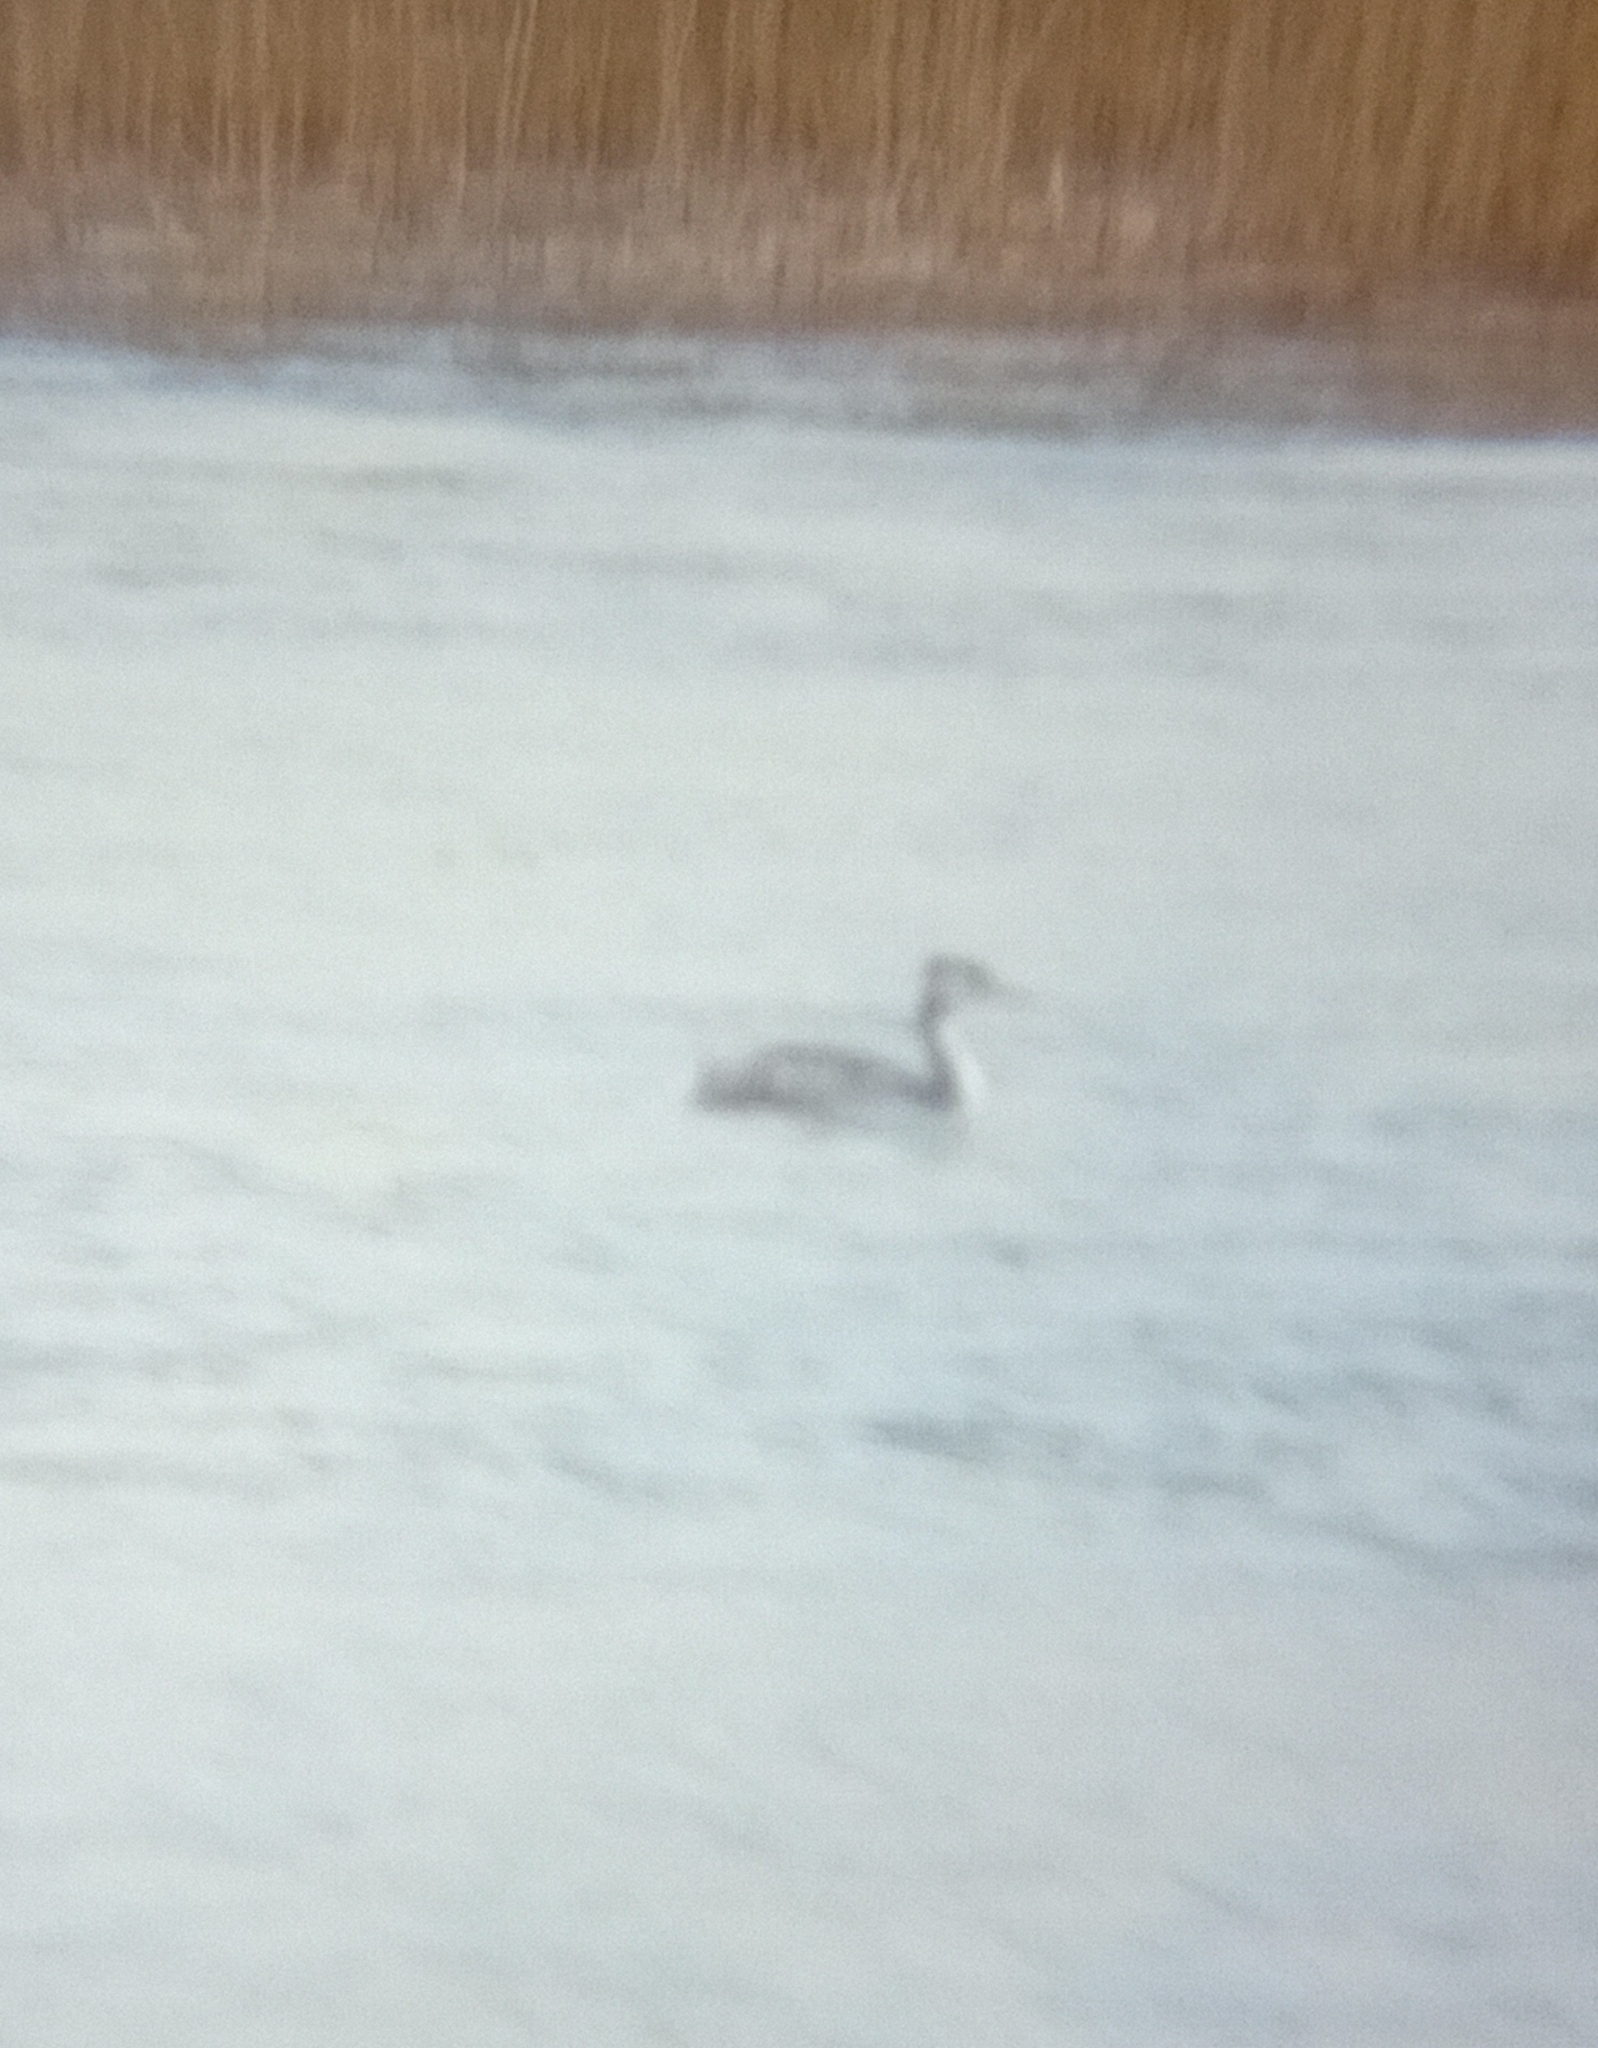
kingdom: Animalia
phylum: Chordata
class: Aves
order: Podicipediformes
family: Podicipedidae
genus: Podiceps
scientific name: Podiceps cristatus
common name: Great crested grebe
